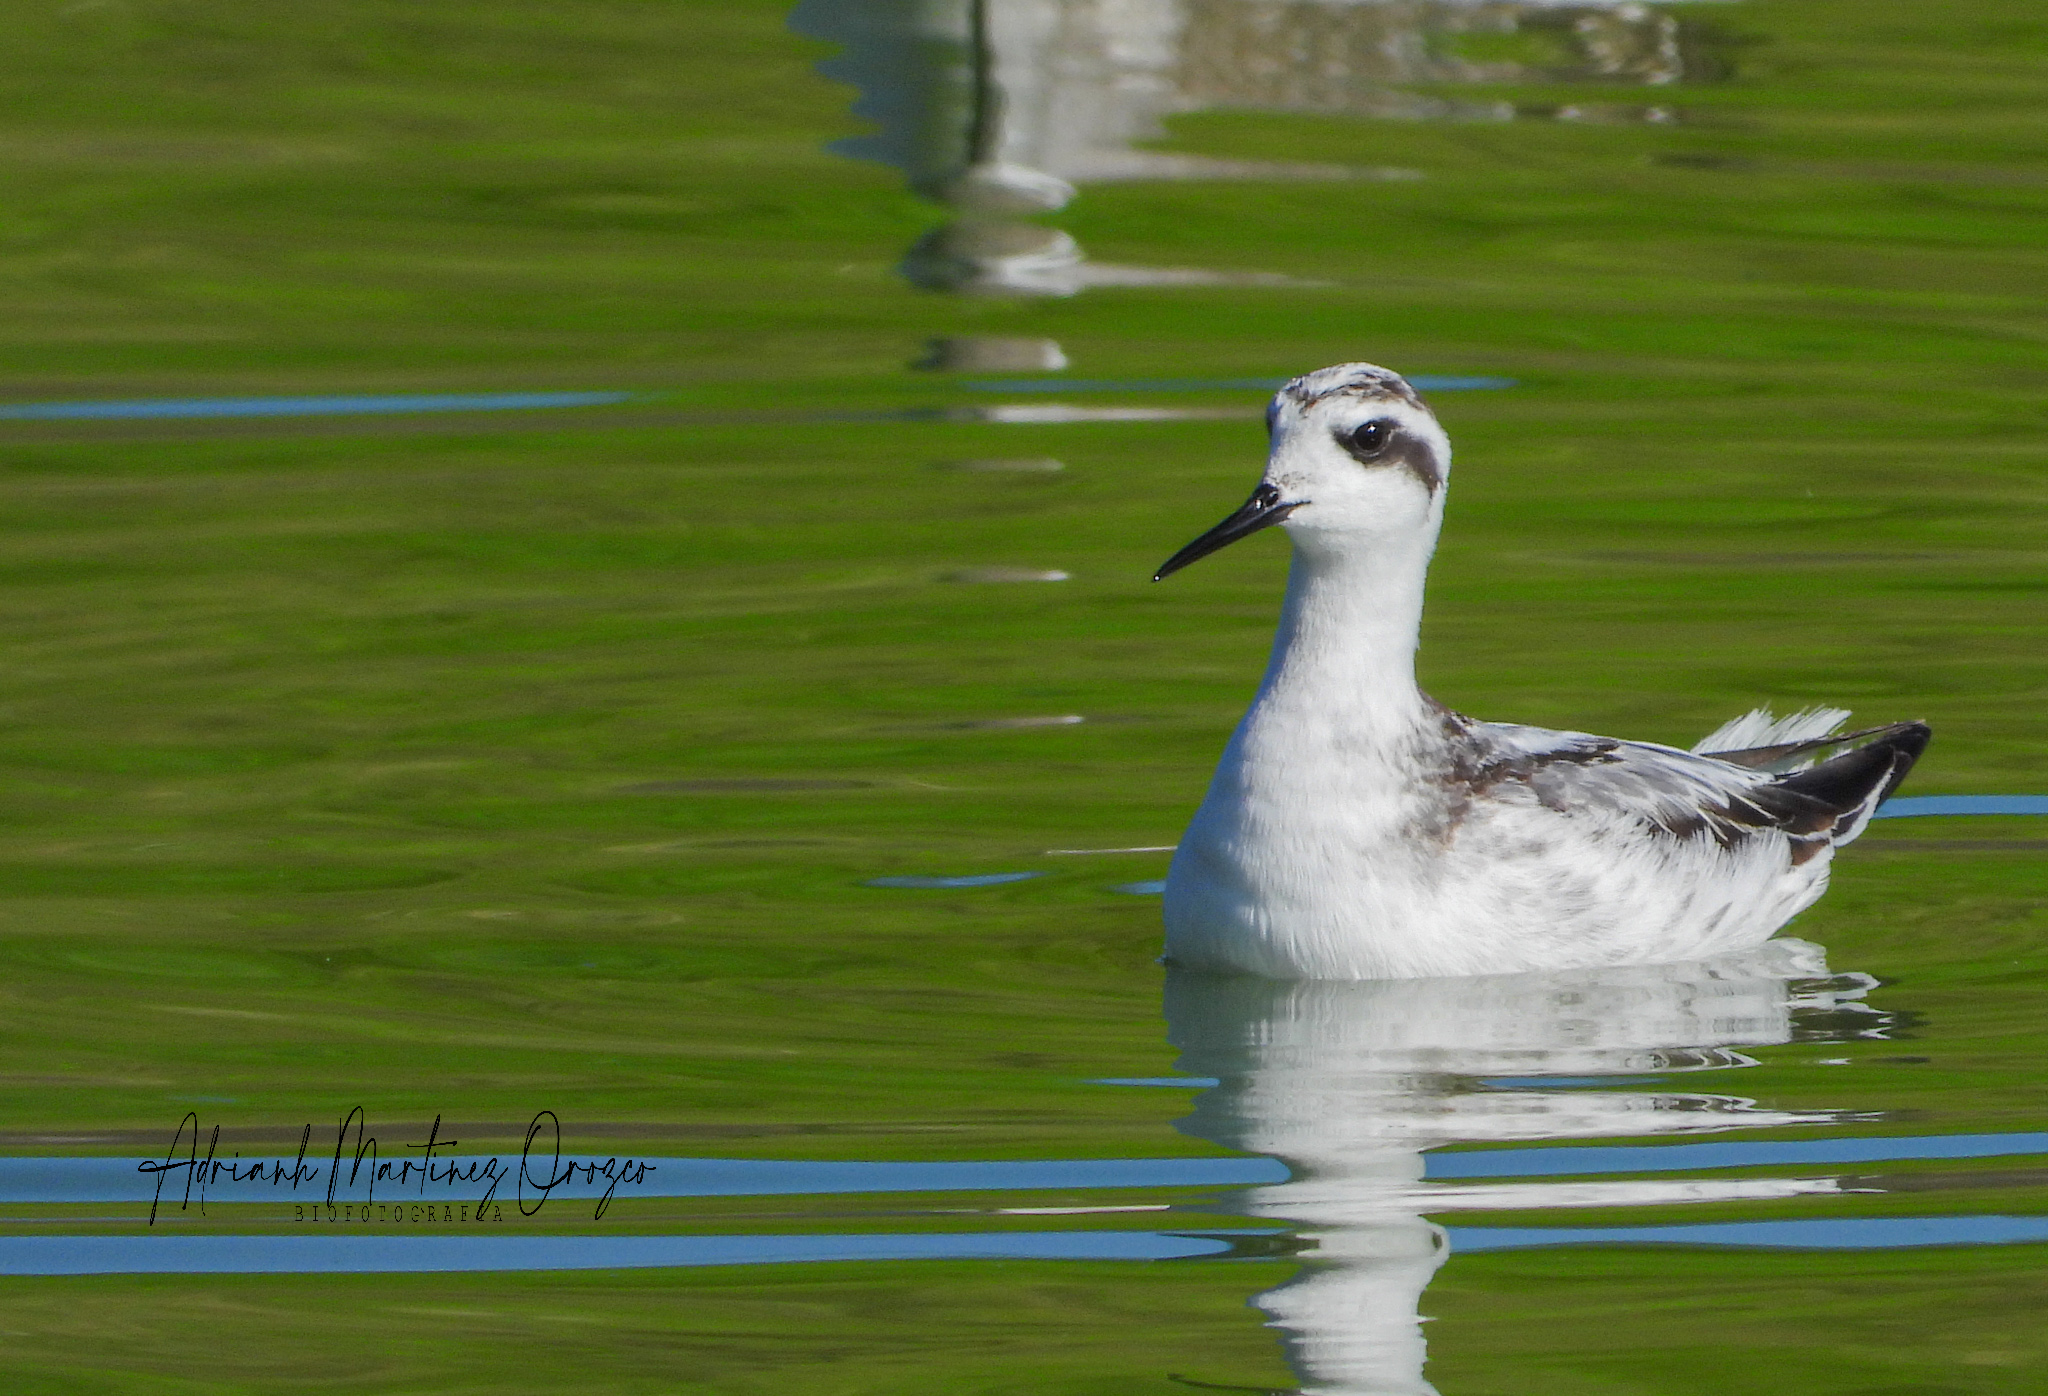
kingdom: Animalia
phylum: Chordata
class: Aves
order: Charadriiformes
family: Scolopacidae
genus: Phalaropus
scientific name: Phalaropus lobatus
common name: Red-necked phalarope
